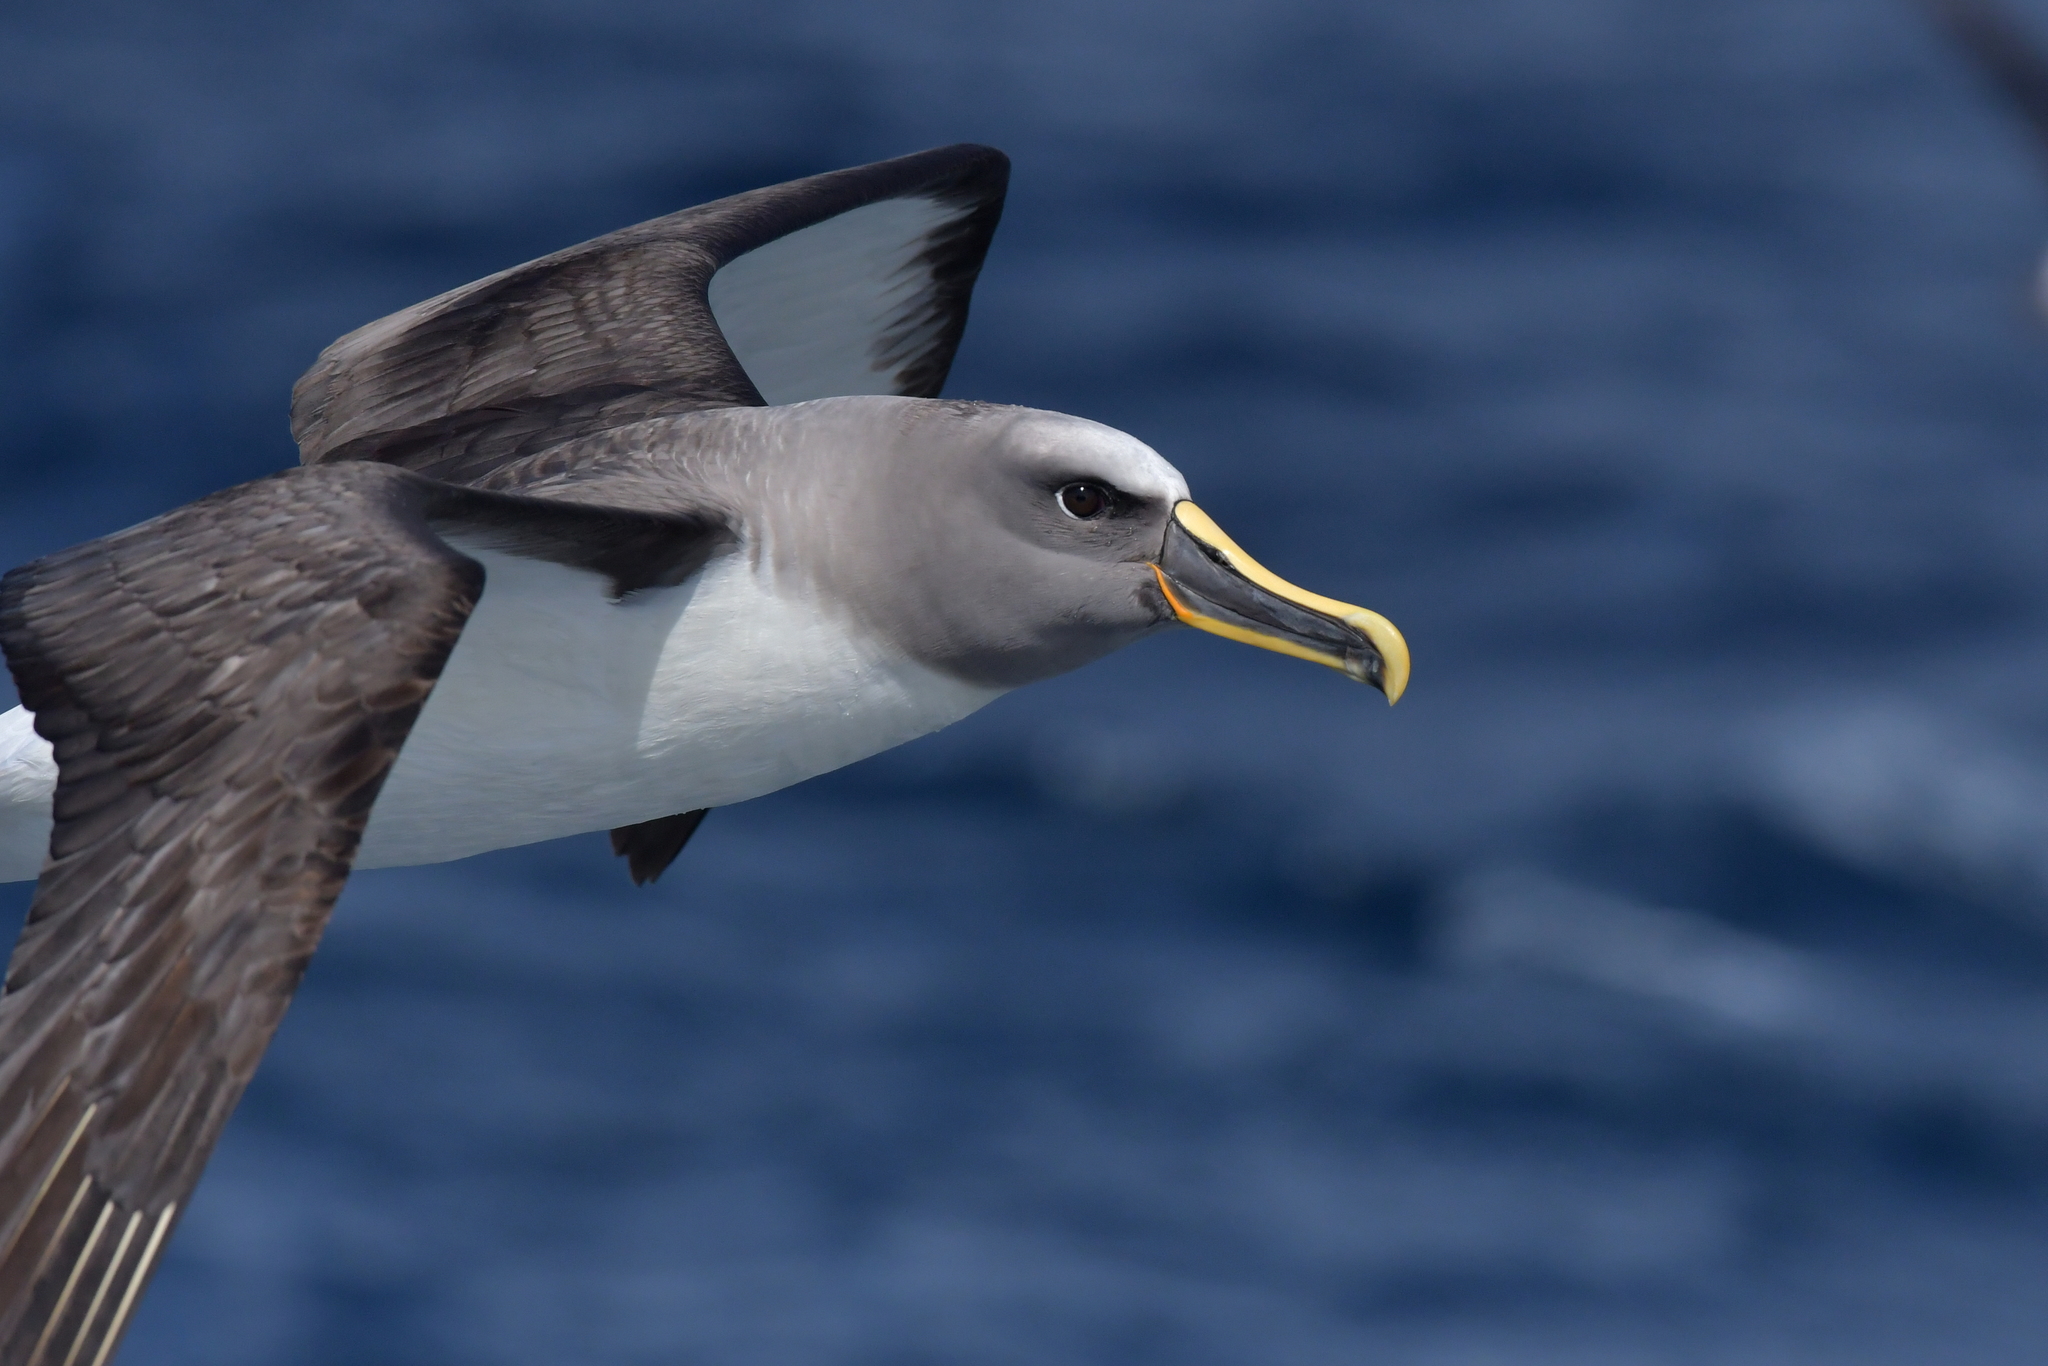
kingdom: Animalia
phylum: Chordata
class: Aves
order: Procellariiformes
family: Diomedeidae
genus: Thalassarche
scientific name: Thalassarche bulleri
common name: Buller's albatross
